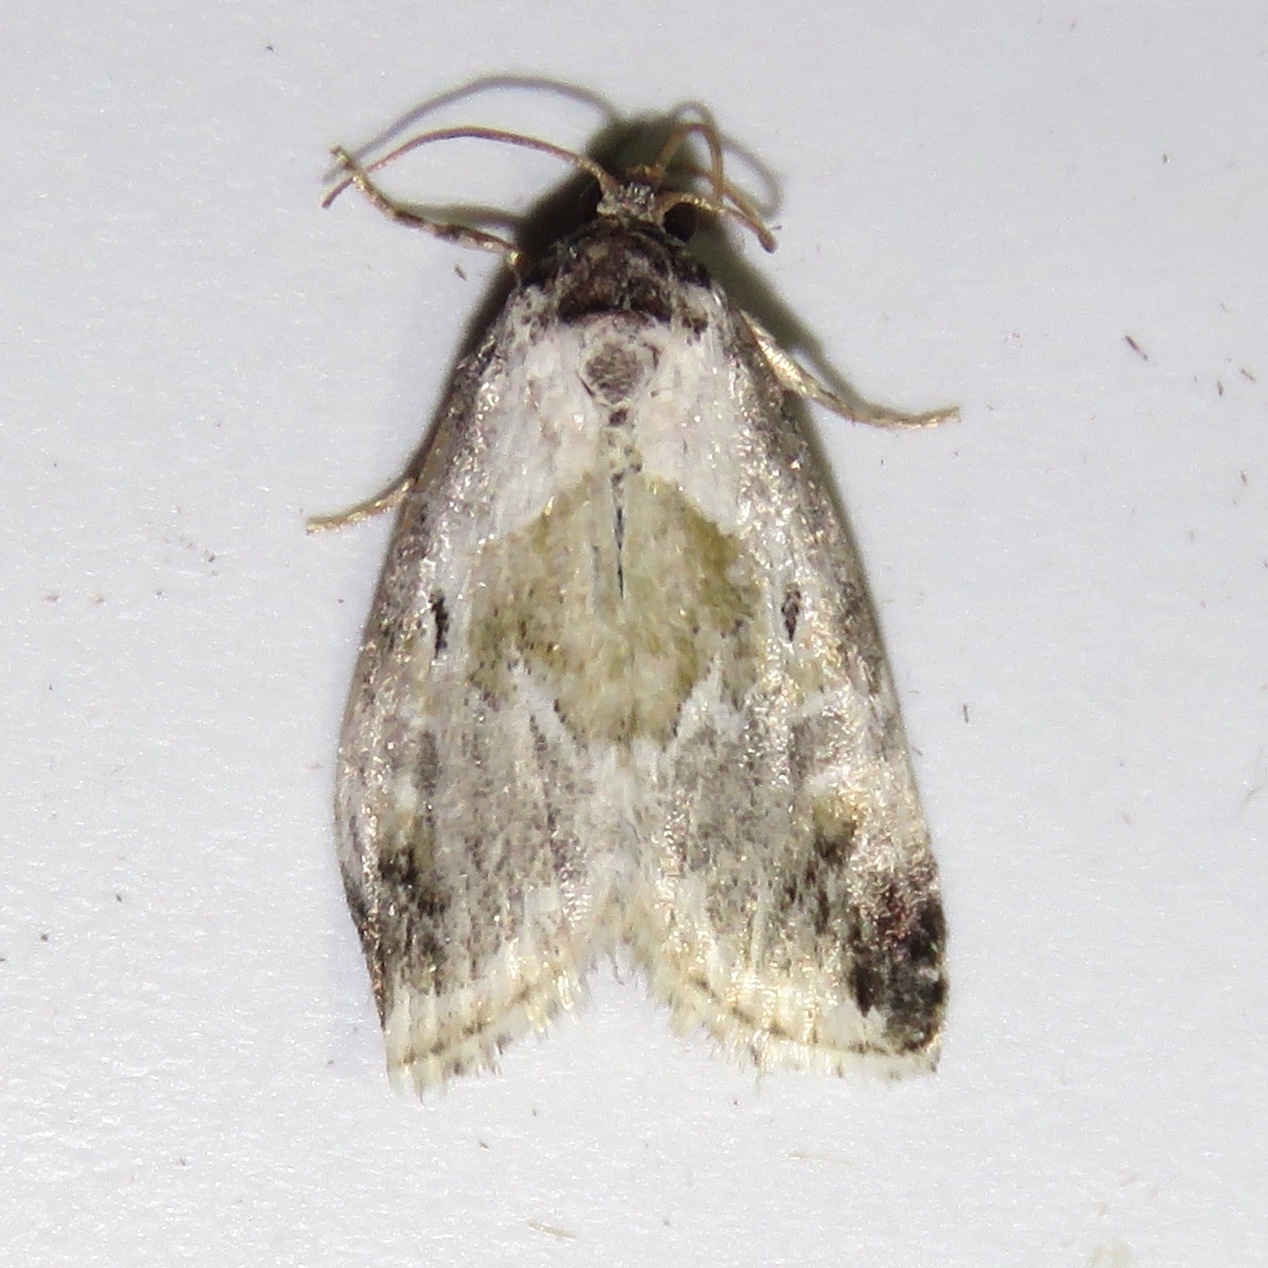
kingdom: Animalia
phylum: Arthropoda
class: Insecta
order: Lepidoptera
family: Noctuidae
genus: Maliattha
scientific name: Maliattha synochitis
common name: Black-dotted glyph
